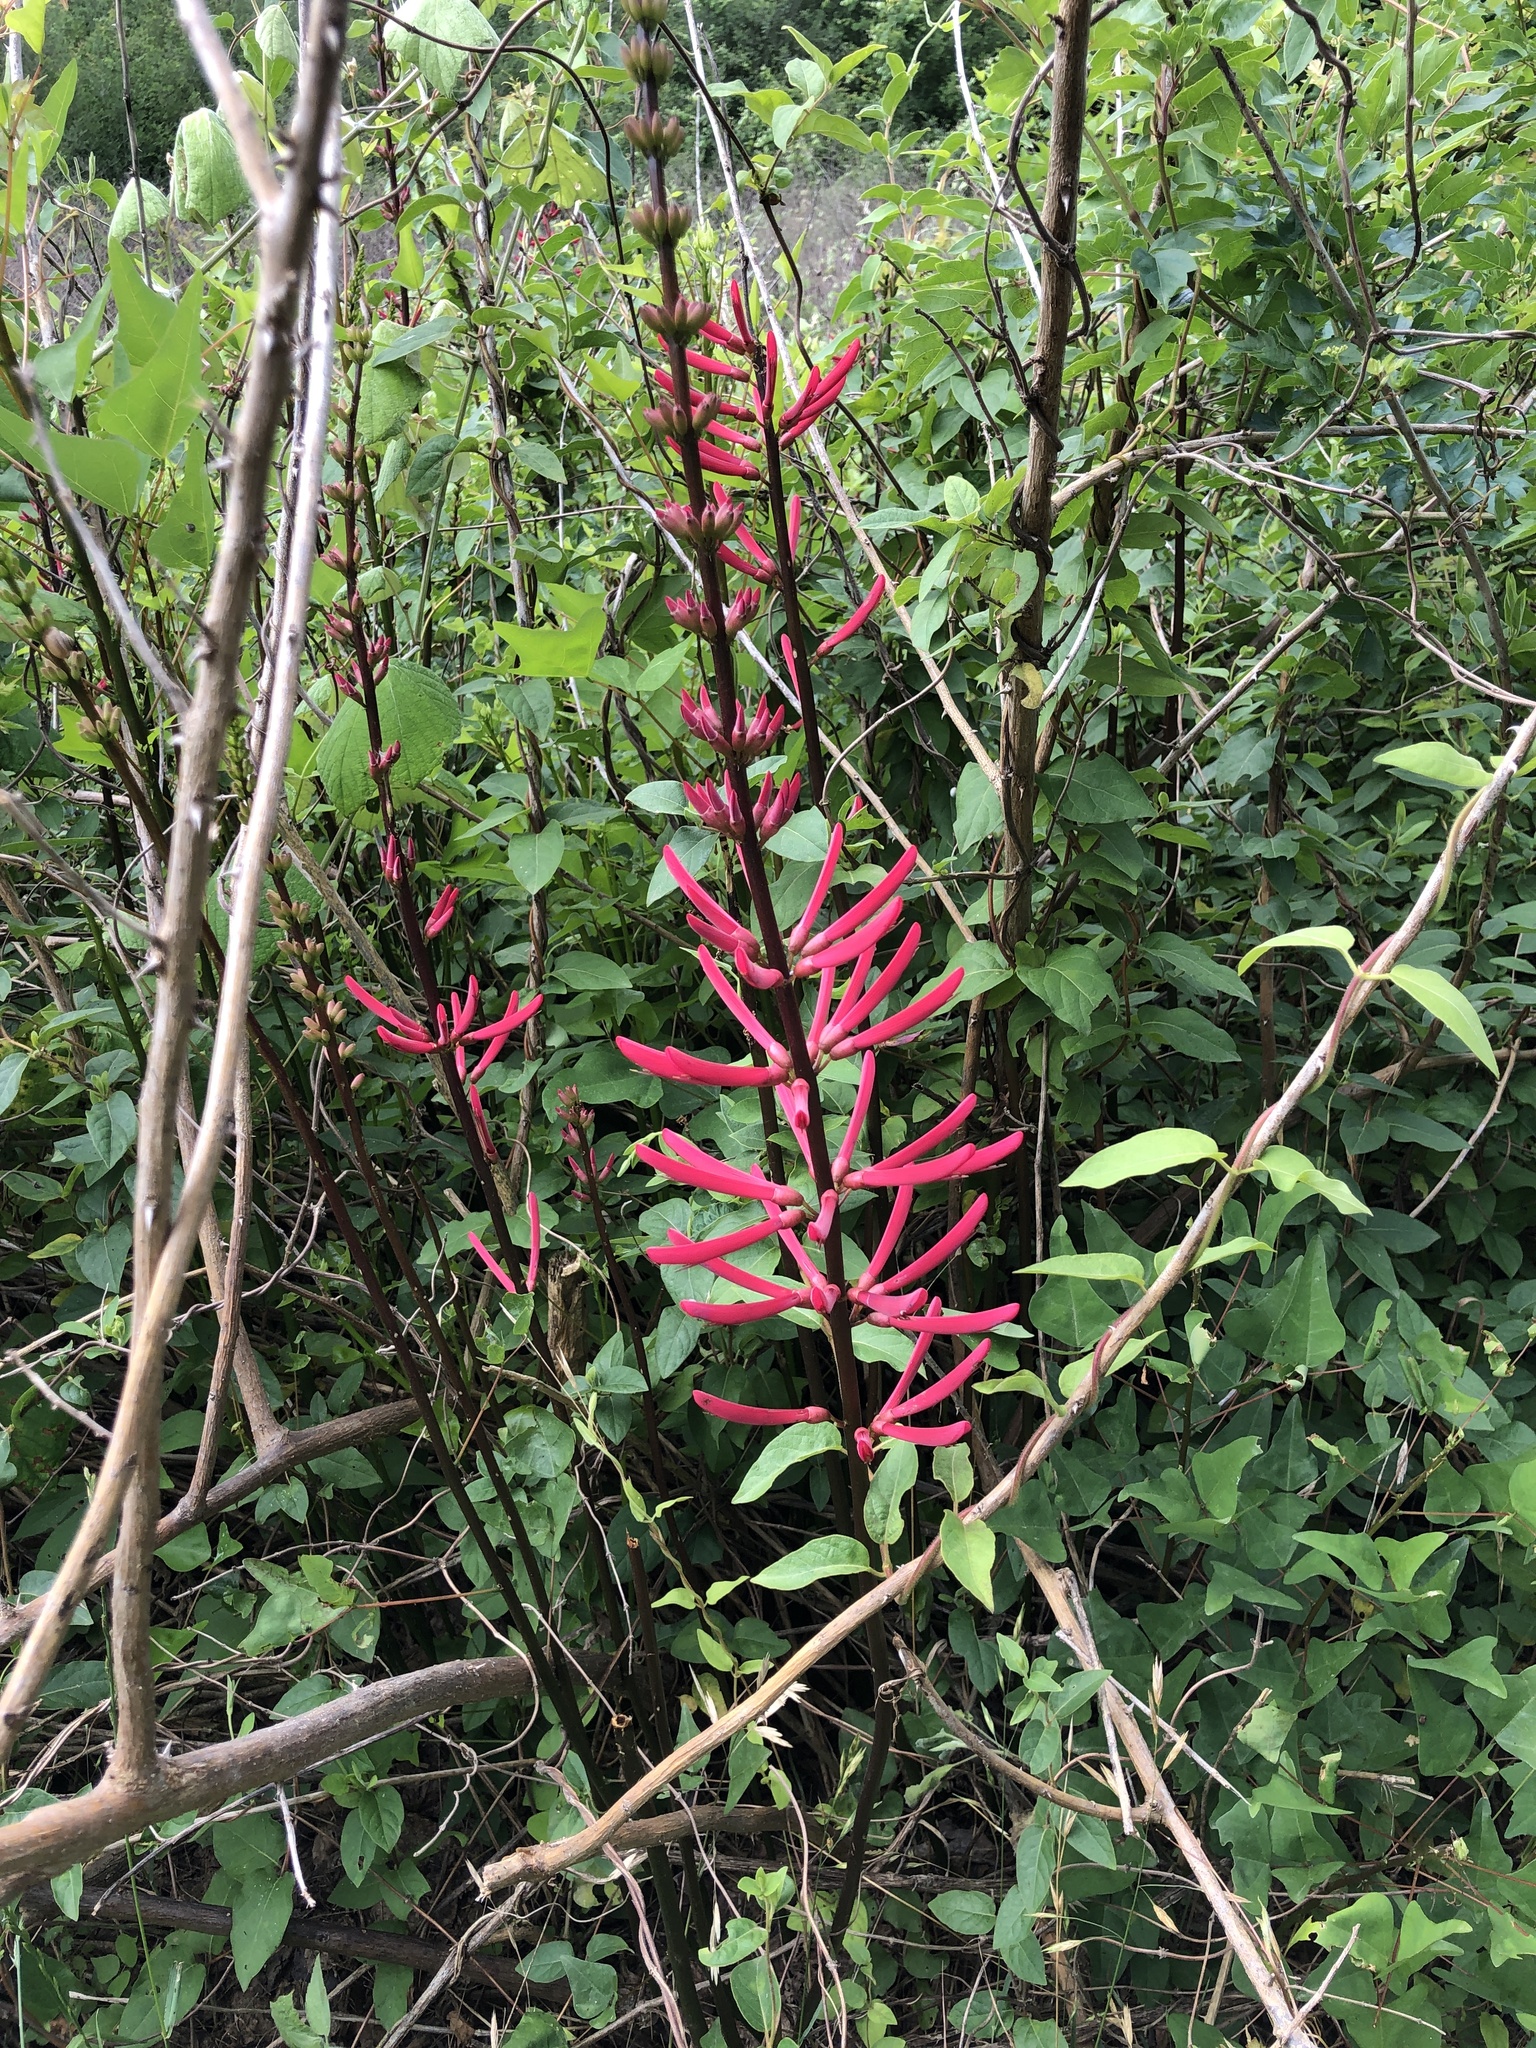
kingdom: Plantae
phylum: Tracheophyta
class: Magnoliopsida
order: Fabales
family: Fabaceae
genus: Erythrina
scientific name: Erythrina herbacea
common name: Coral-bean
